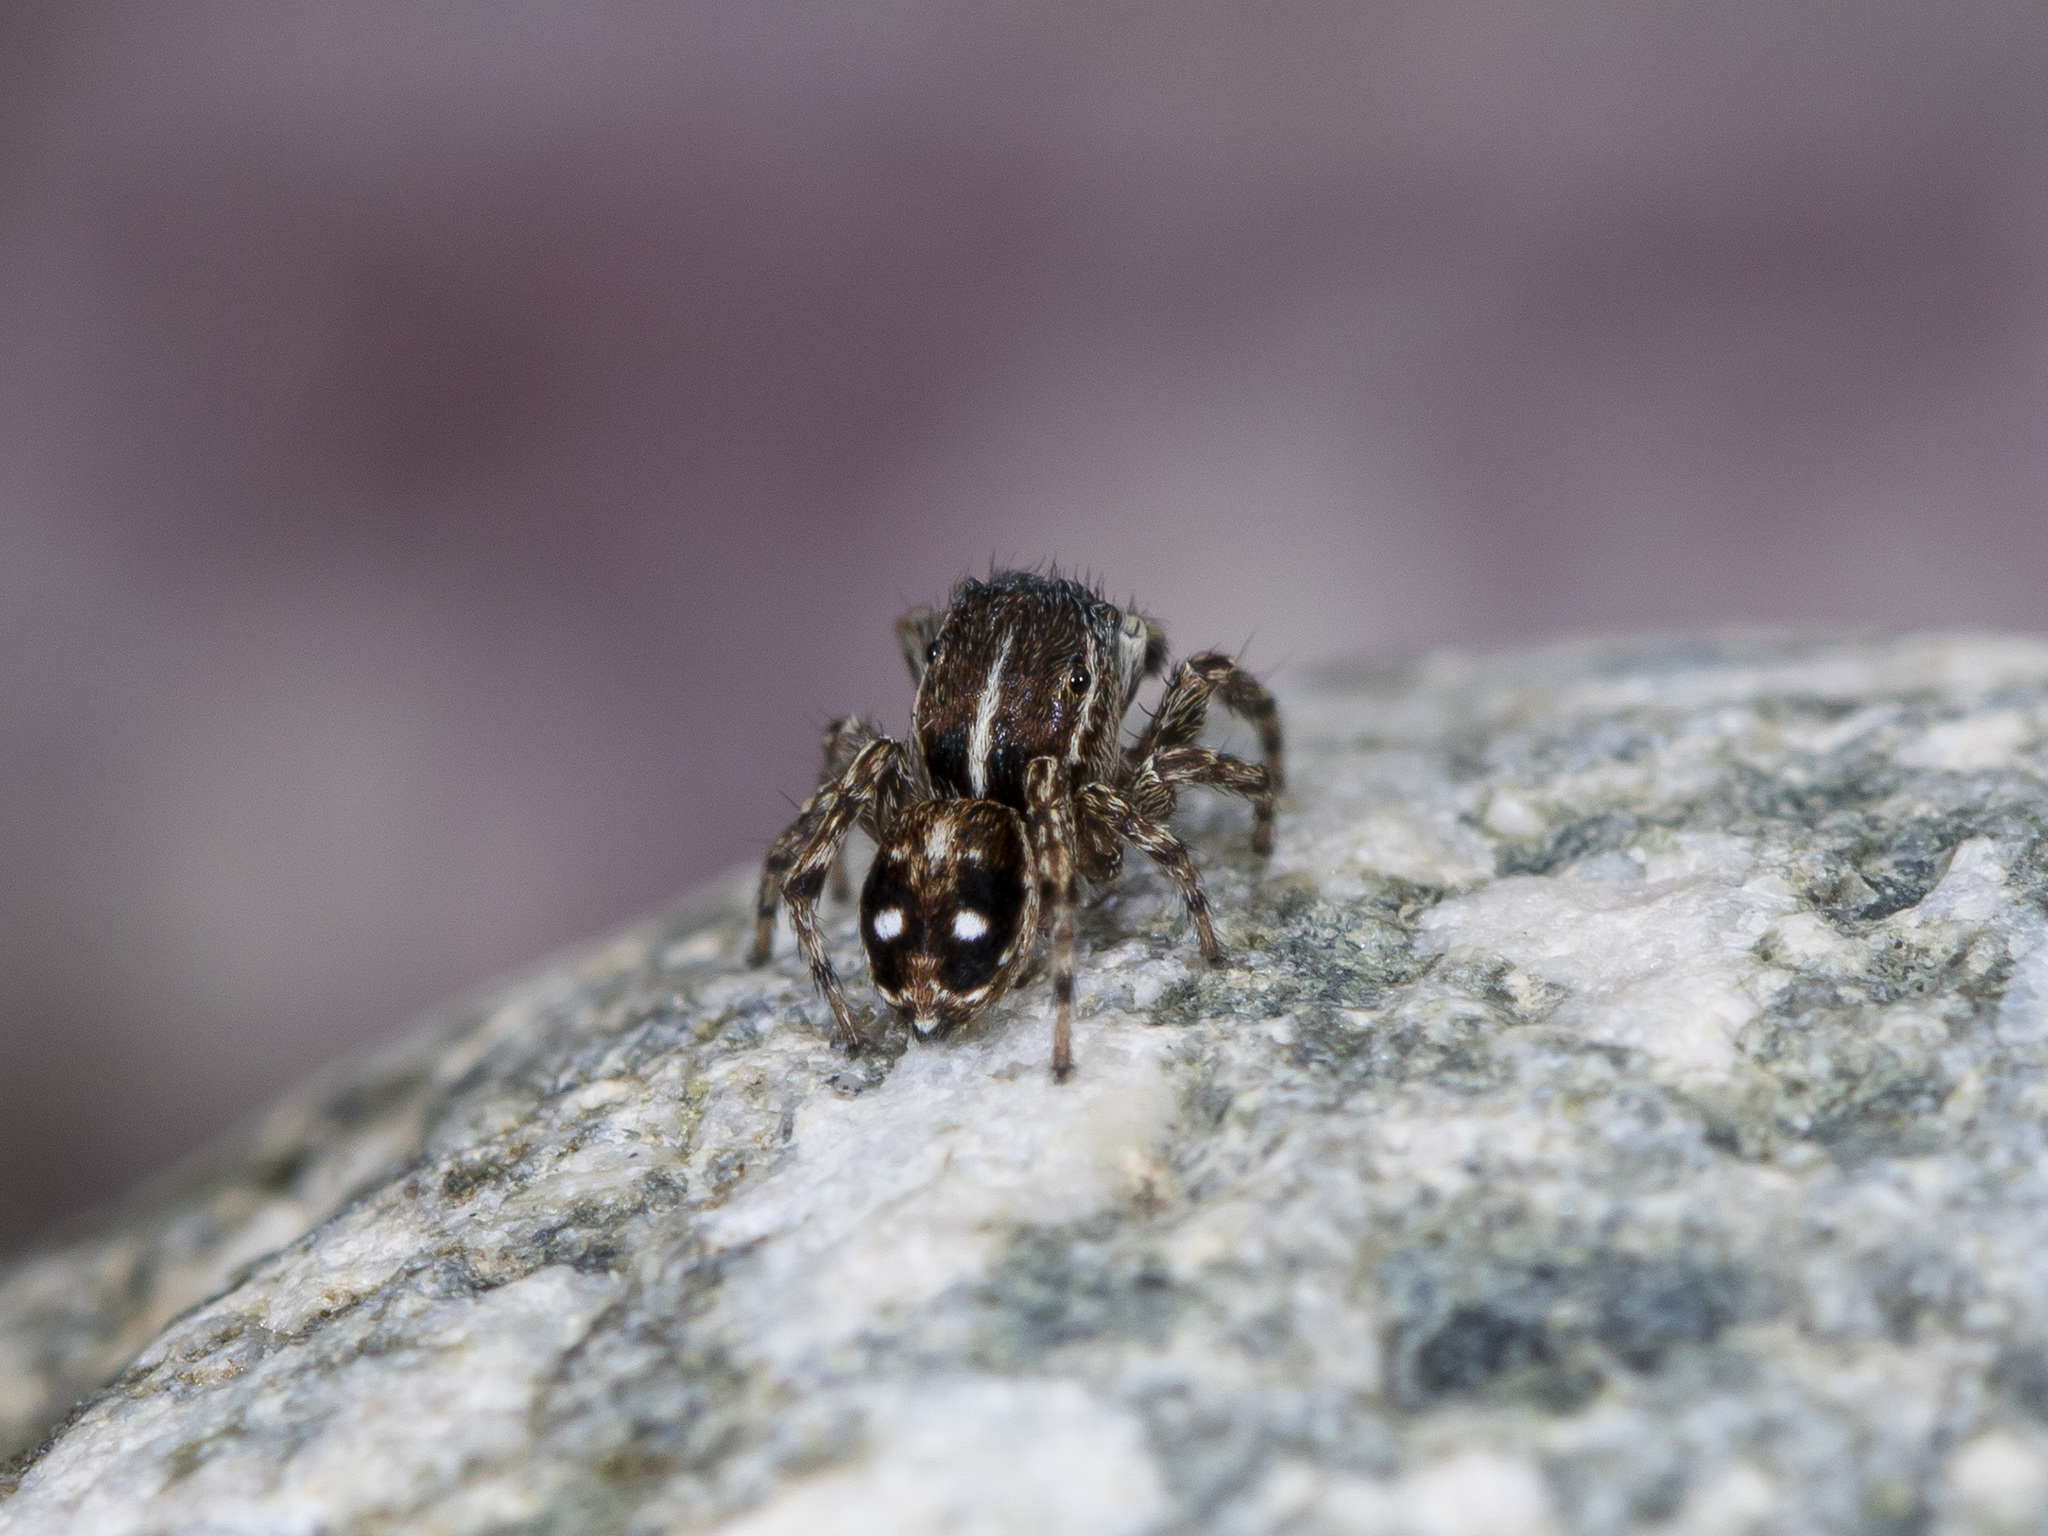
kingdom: Animalia
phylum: Arthropoda
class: Arachnida
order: Araneae
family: Salticidae
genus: Attulus
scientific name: Attulus zimmermanni
